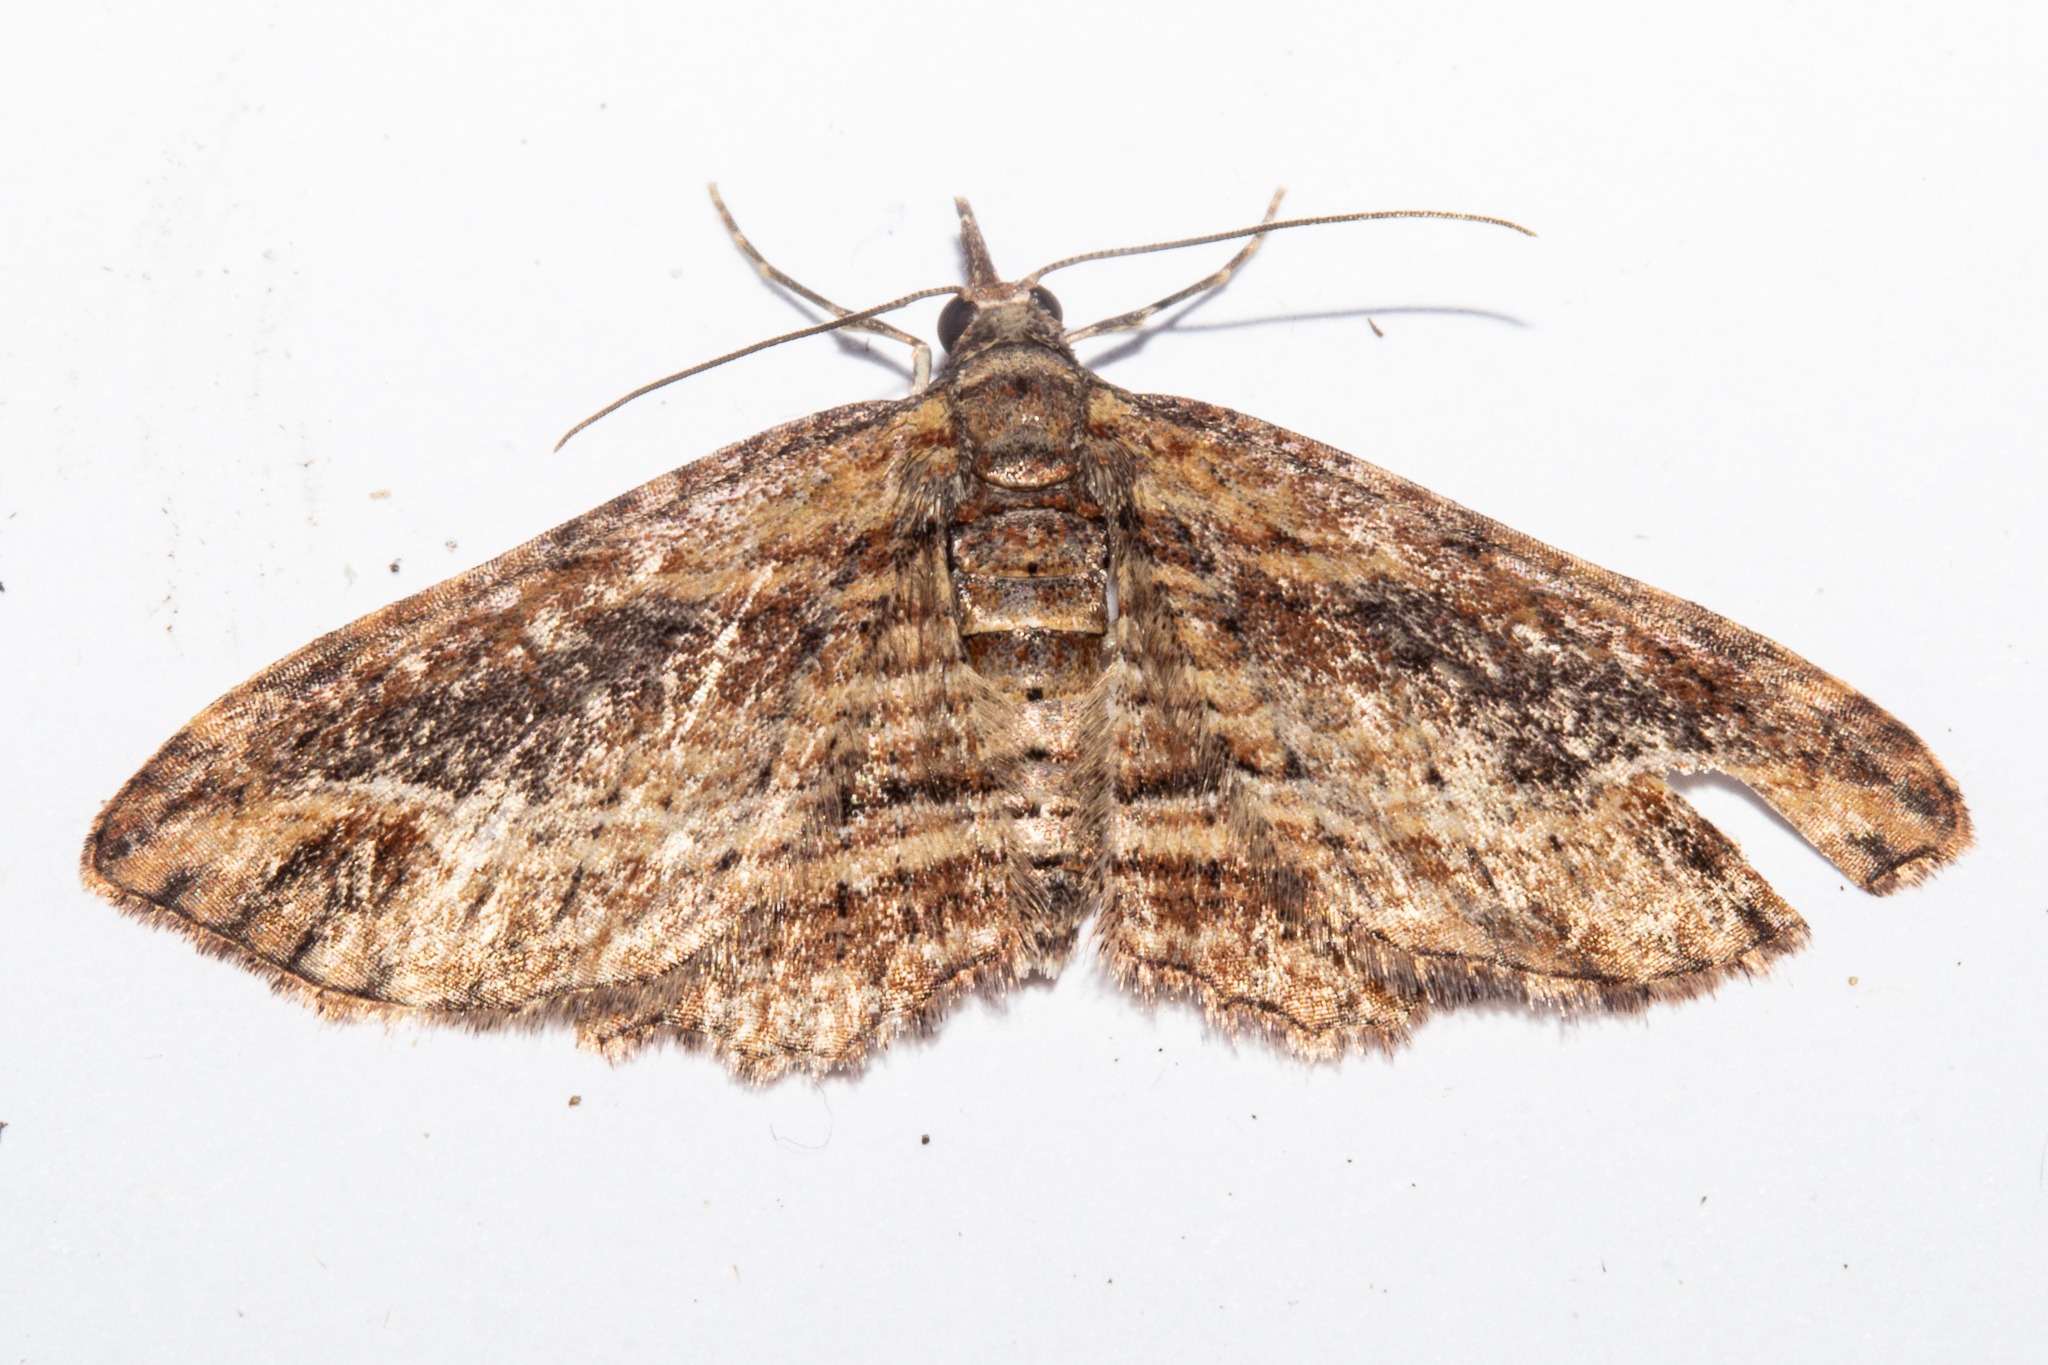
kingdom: Animalia
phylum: Arthropoda
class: Insecta
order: Lepidoptera
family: Geometridae
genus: Chloroclystis
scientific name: Chloroclystis filata
